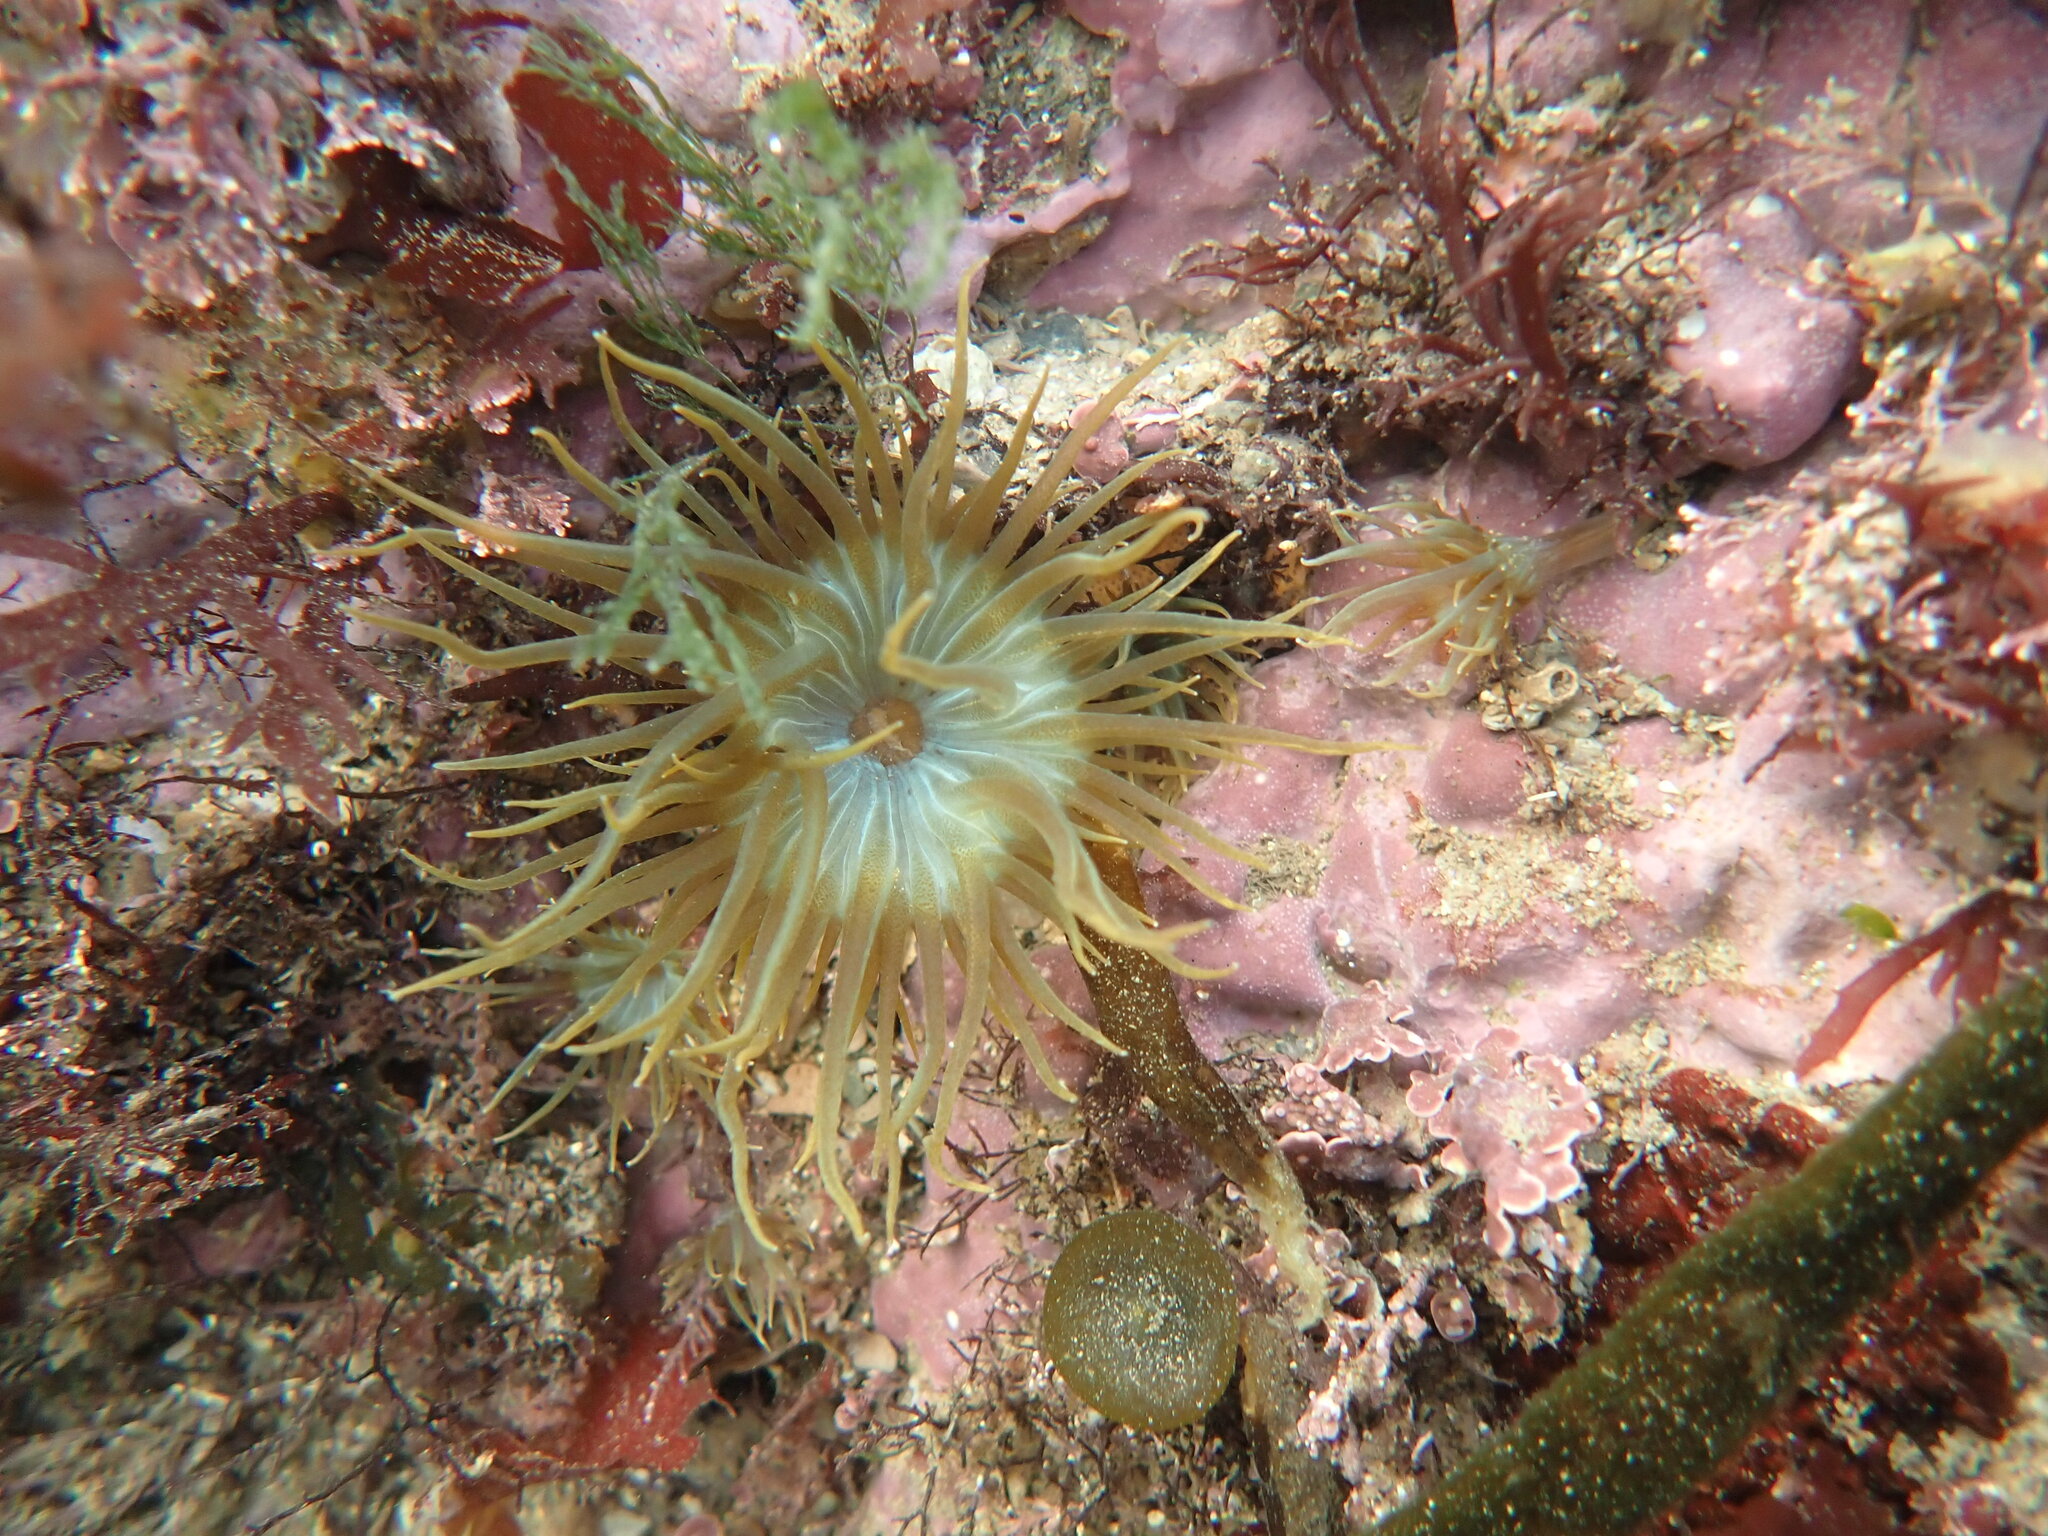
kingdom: Animalia
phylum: Cnidaria
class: Anthozoa
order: Actiniaria
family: Aiptasiidae
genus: Aiptasia
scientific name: Aiptasia couchii
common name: Trumpet anemone
